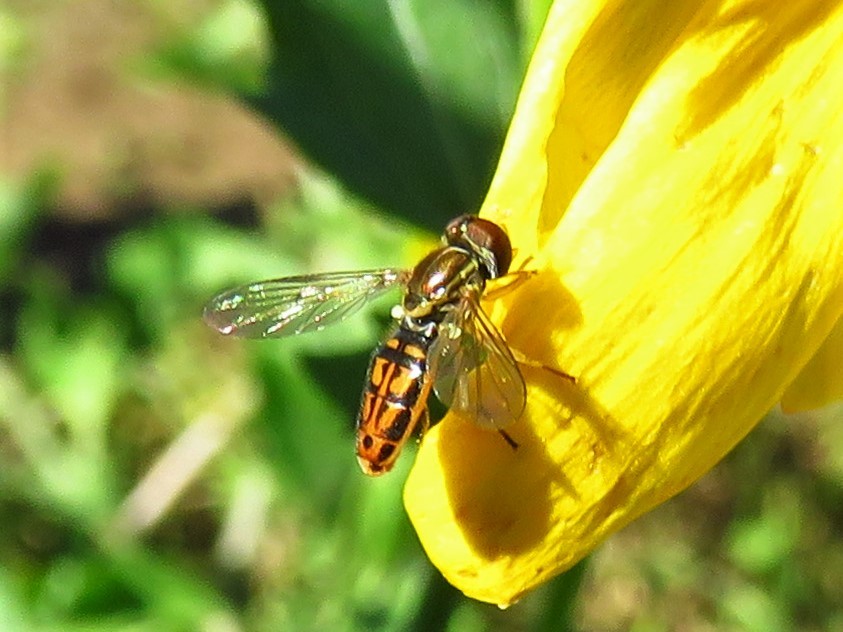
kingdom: Animalia
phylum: Arthropoda
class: Insecta
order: Diptera
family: Syrphidae
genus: Toxomerus
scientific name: Toxomerus marginatus
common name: Syrphid fly
